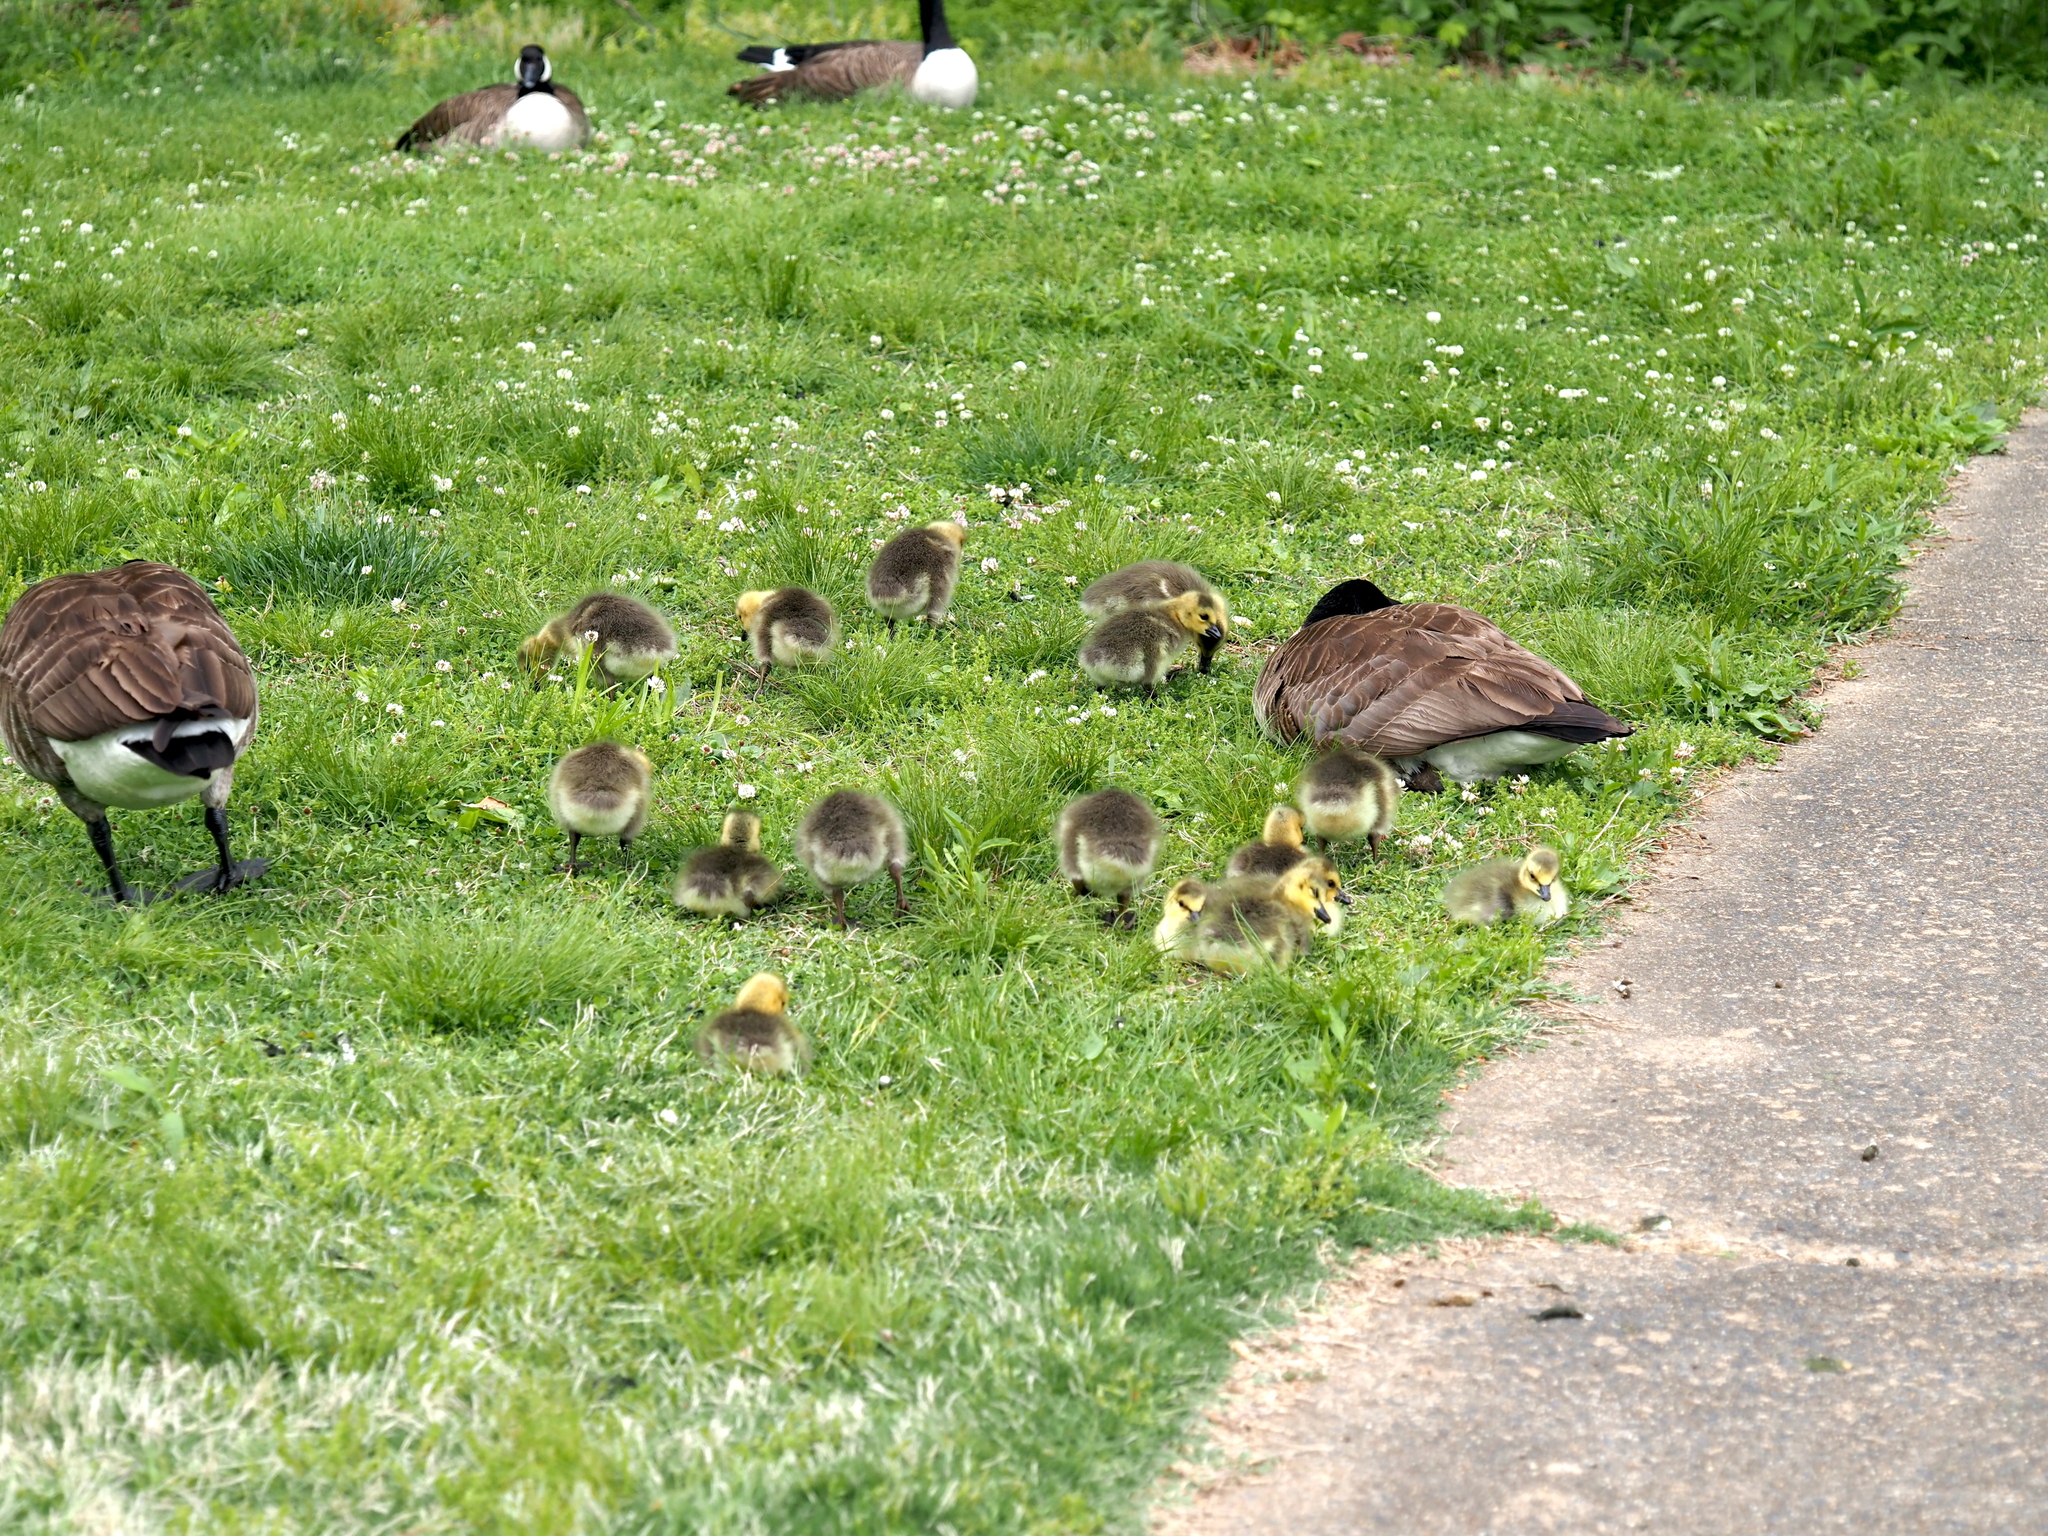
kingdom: Animalia
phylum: Chordata
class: Aves
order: Anseriformes
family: Anatidae
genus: Branta
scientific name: Branta canadensis
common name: Canada goose
